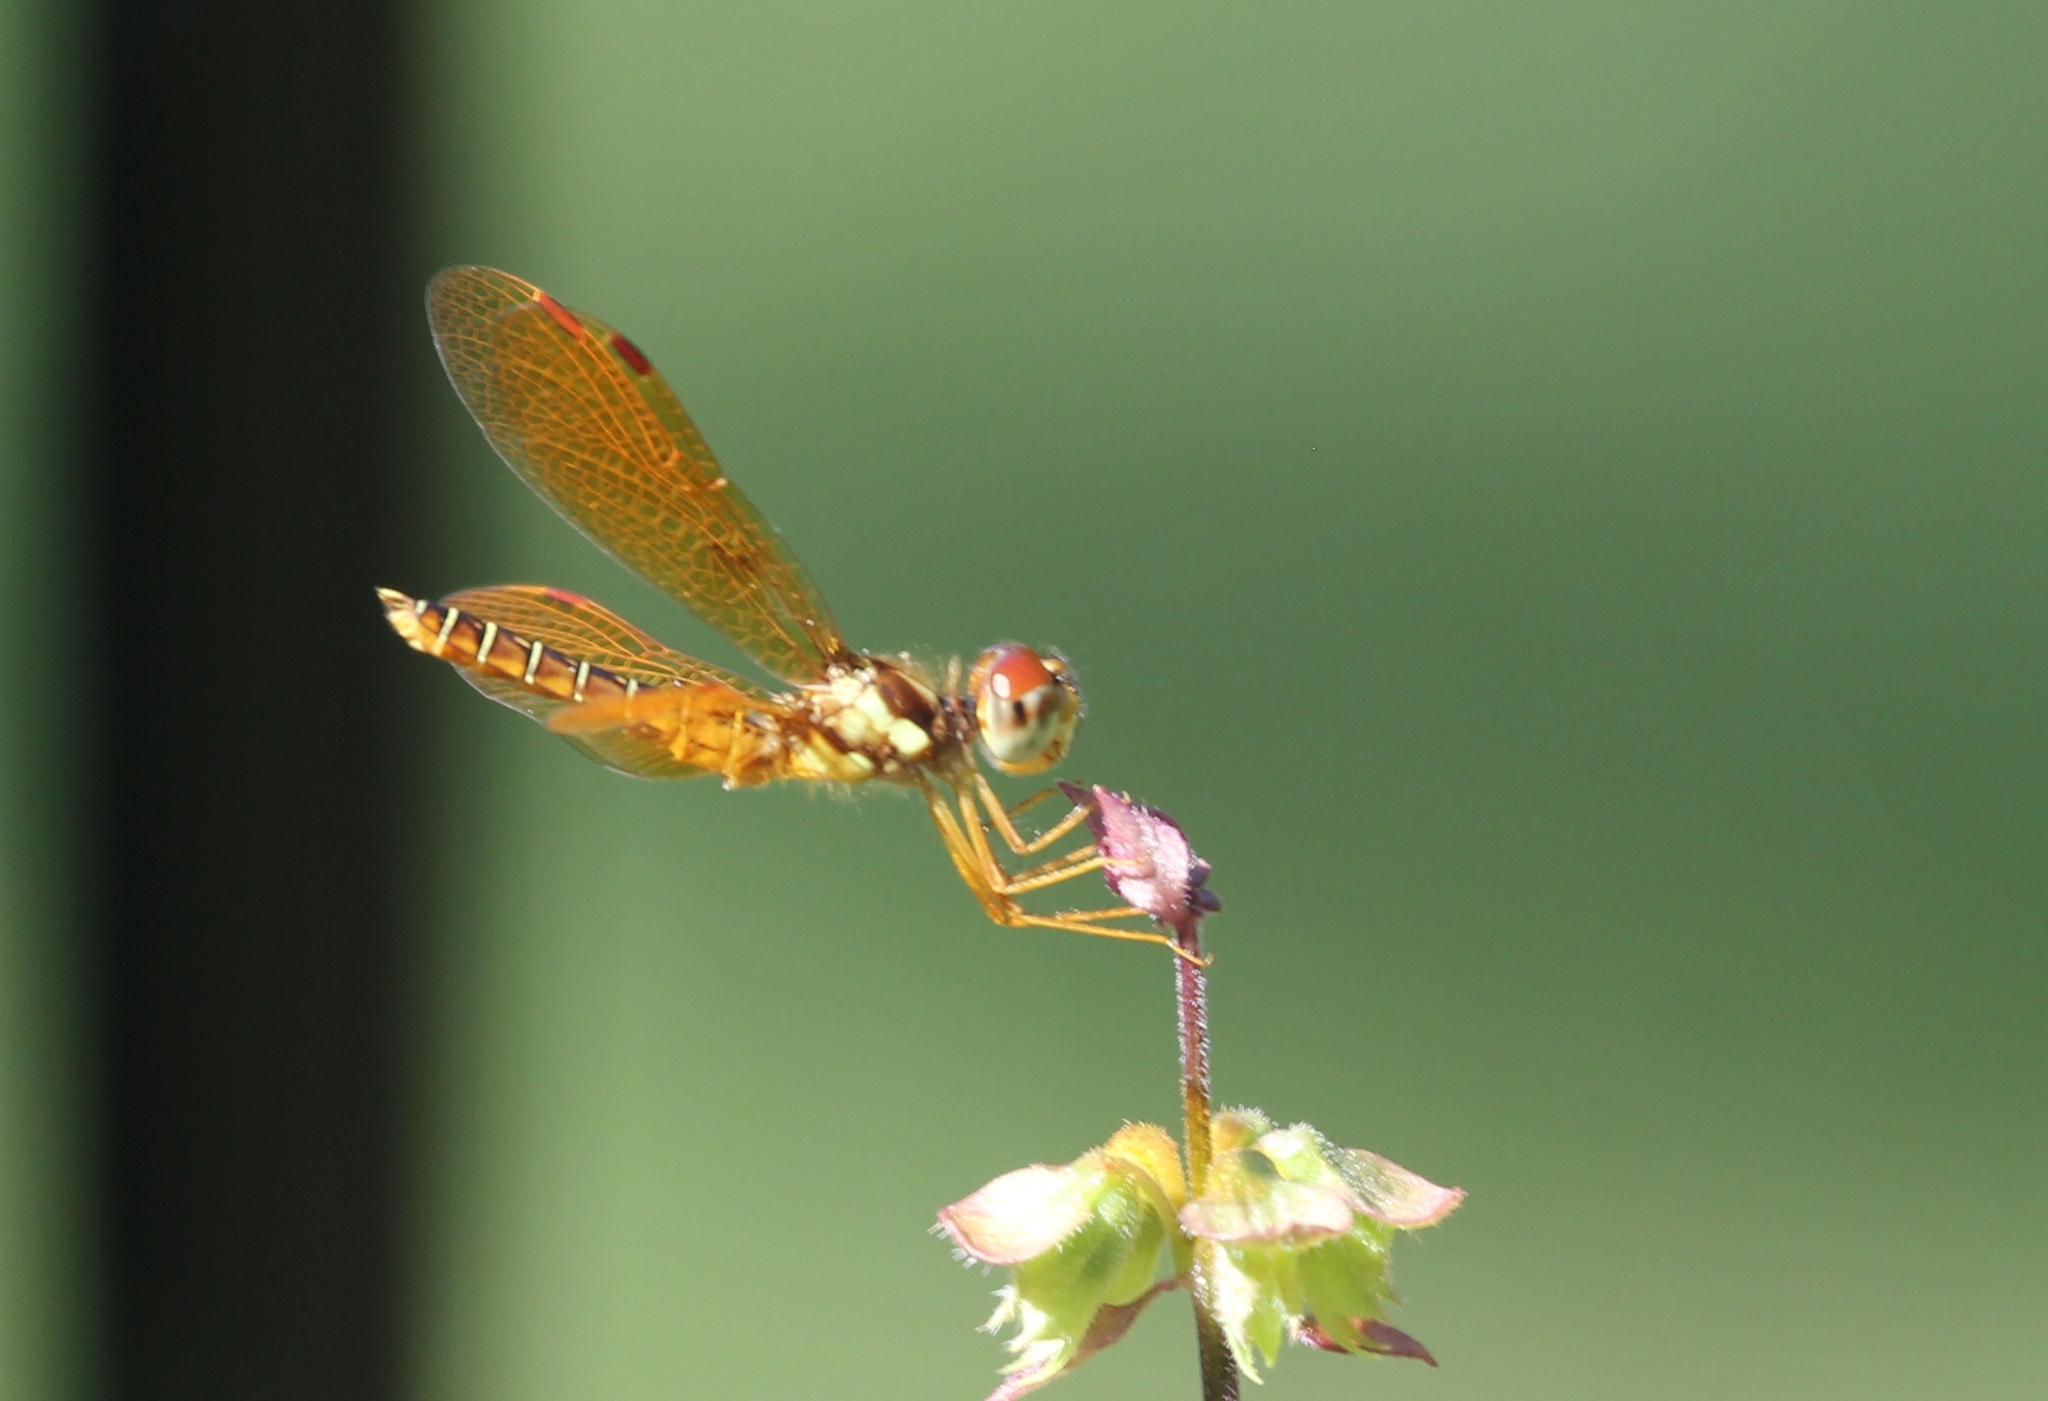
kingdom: Animalia
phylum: Arthropoda
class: Insecta
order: Odonata
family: Libellulidae
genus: Perithemis
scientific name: Perithemis tenera
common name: Eastern amberwing
